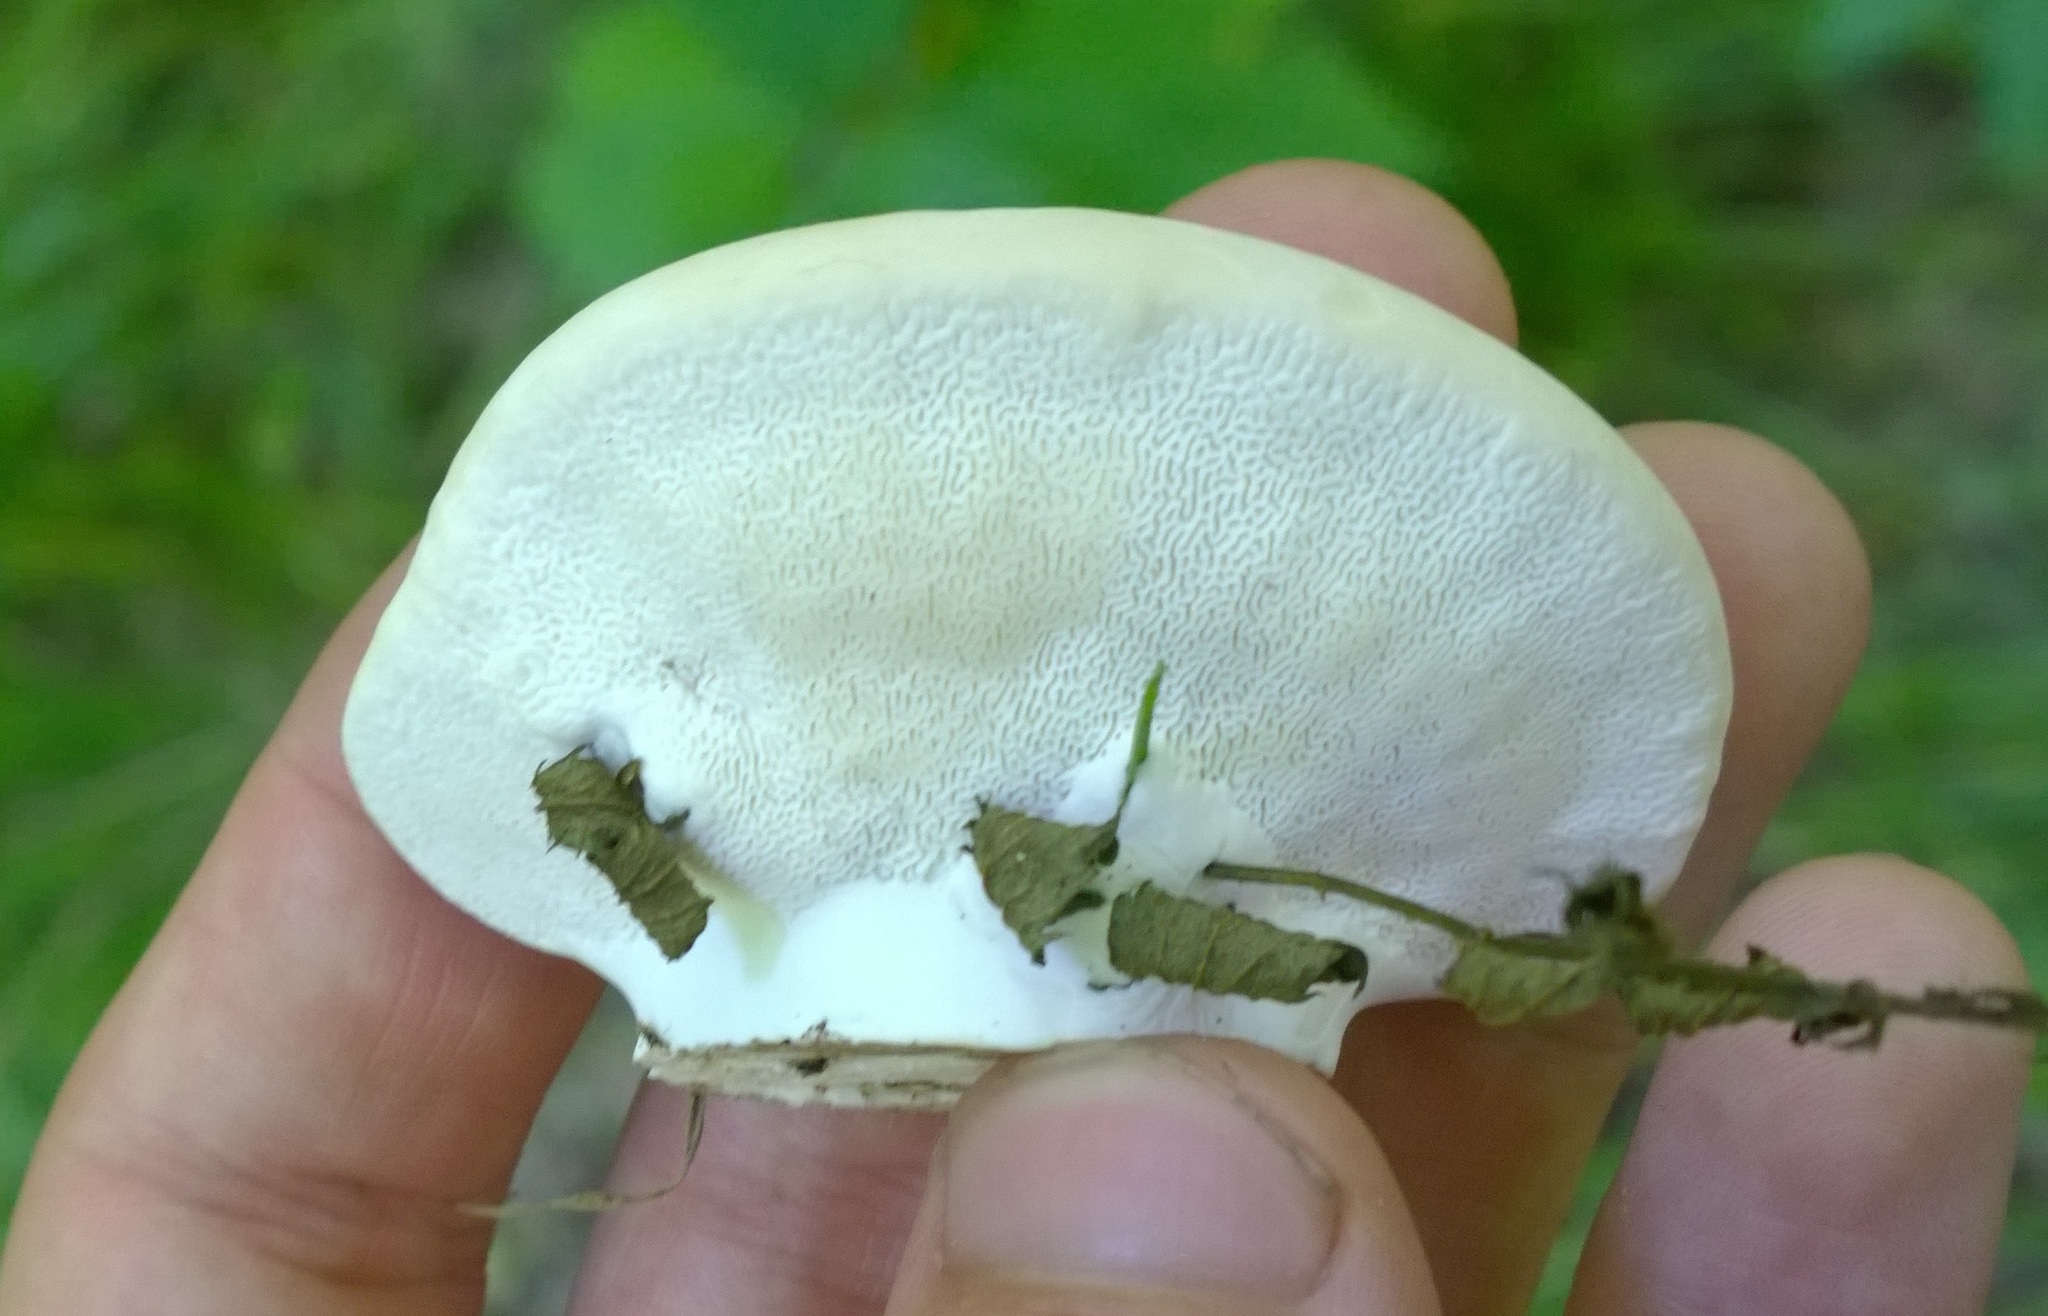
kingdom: Fungi
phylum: Basidiomycota
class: Agaricomycetes
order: Polyporales
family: Polyporaceae
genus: Trametes
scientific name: Trametes suaveolens
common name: Fragrant bracket
